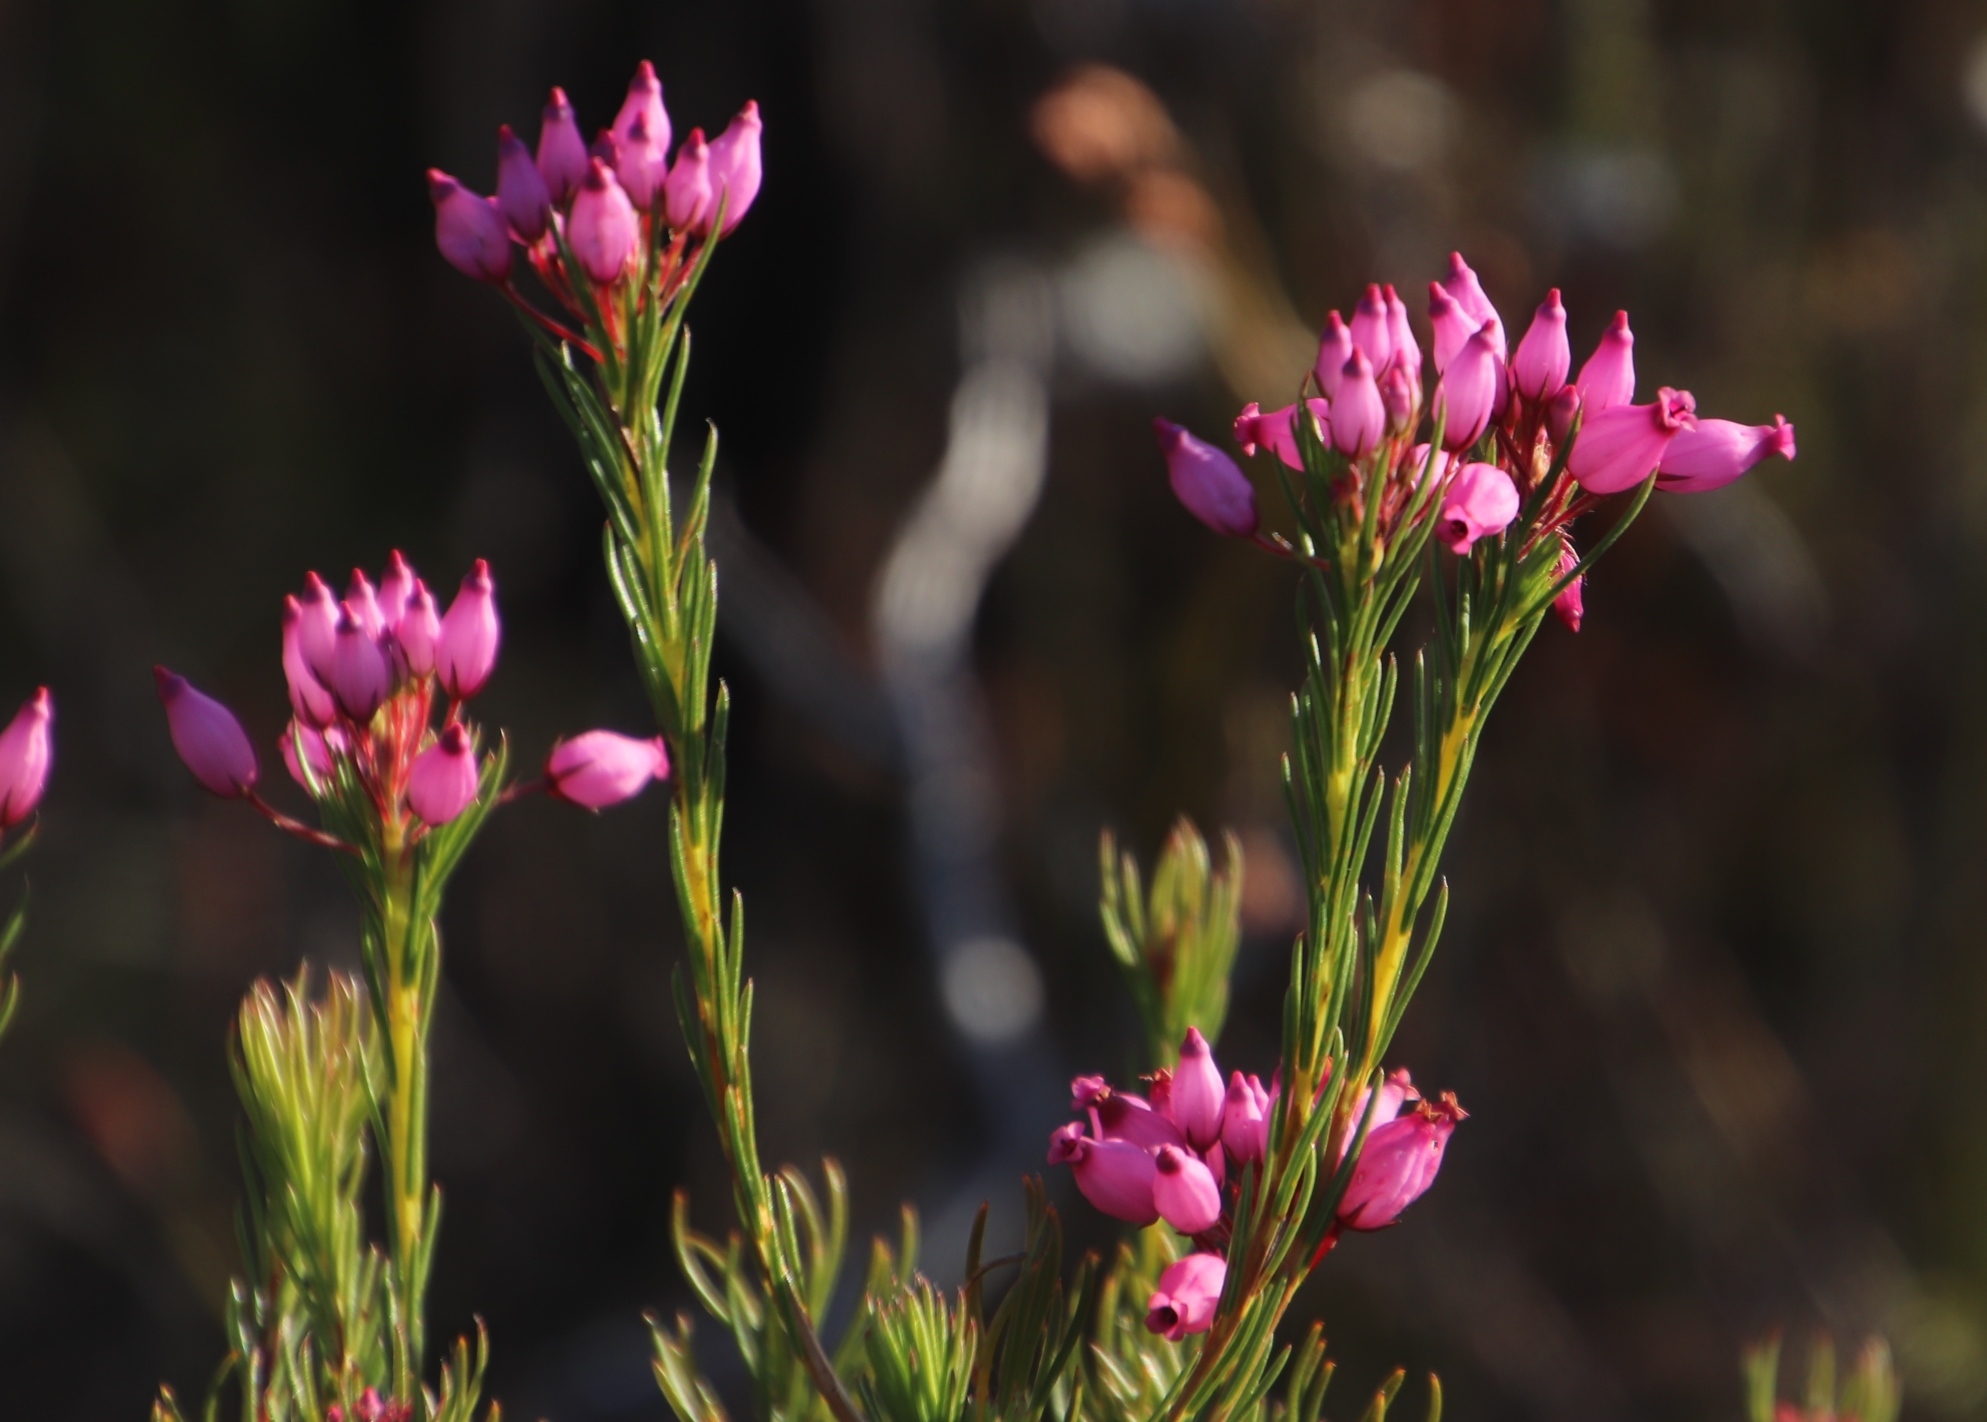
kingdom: Plantae
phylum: Tracheophyta
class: Magnoliopsida
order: Ericales
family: Ericaceae
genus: Erica
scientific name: Erica inflata
